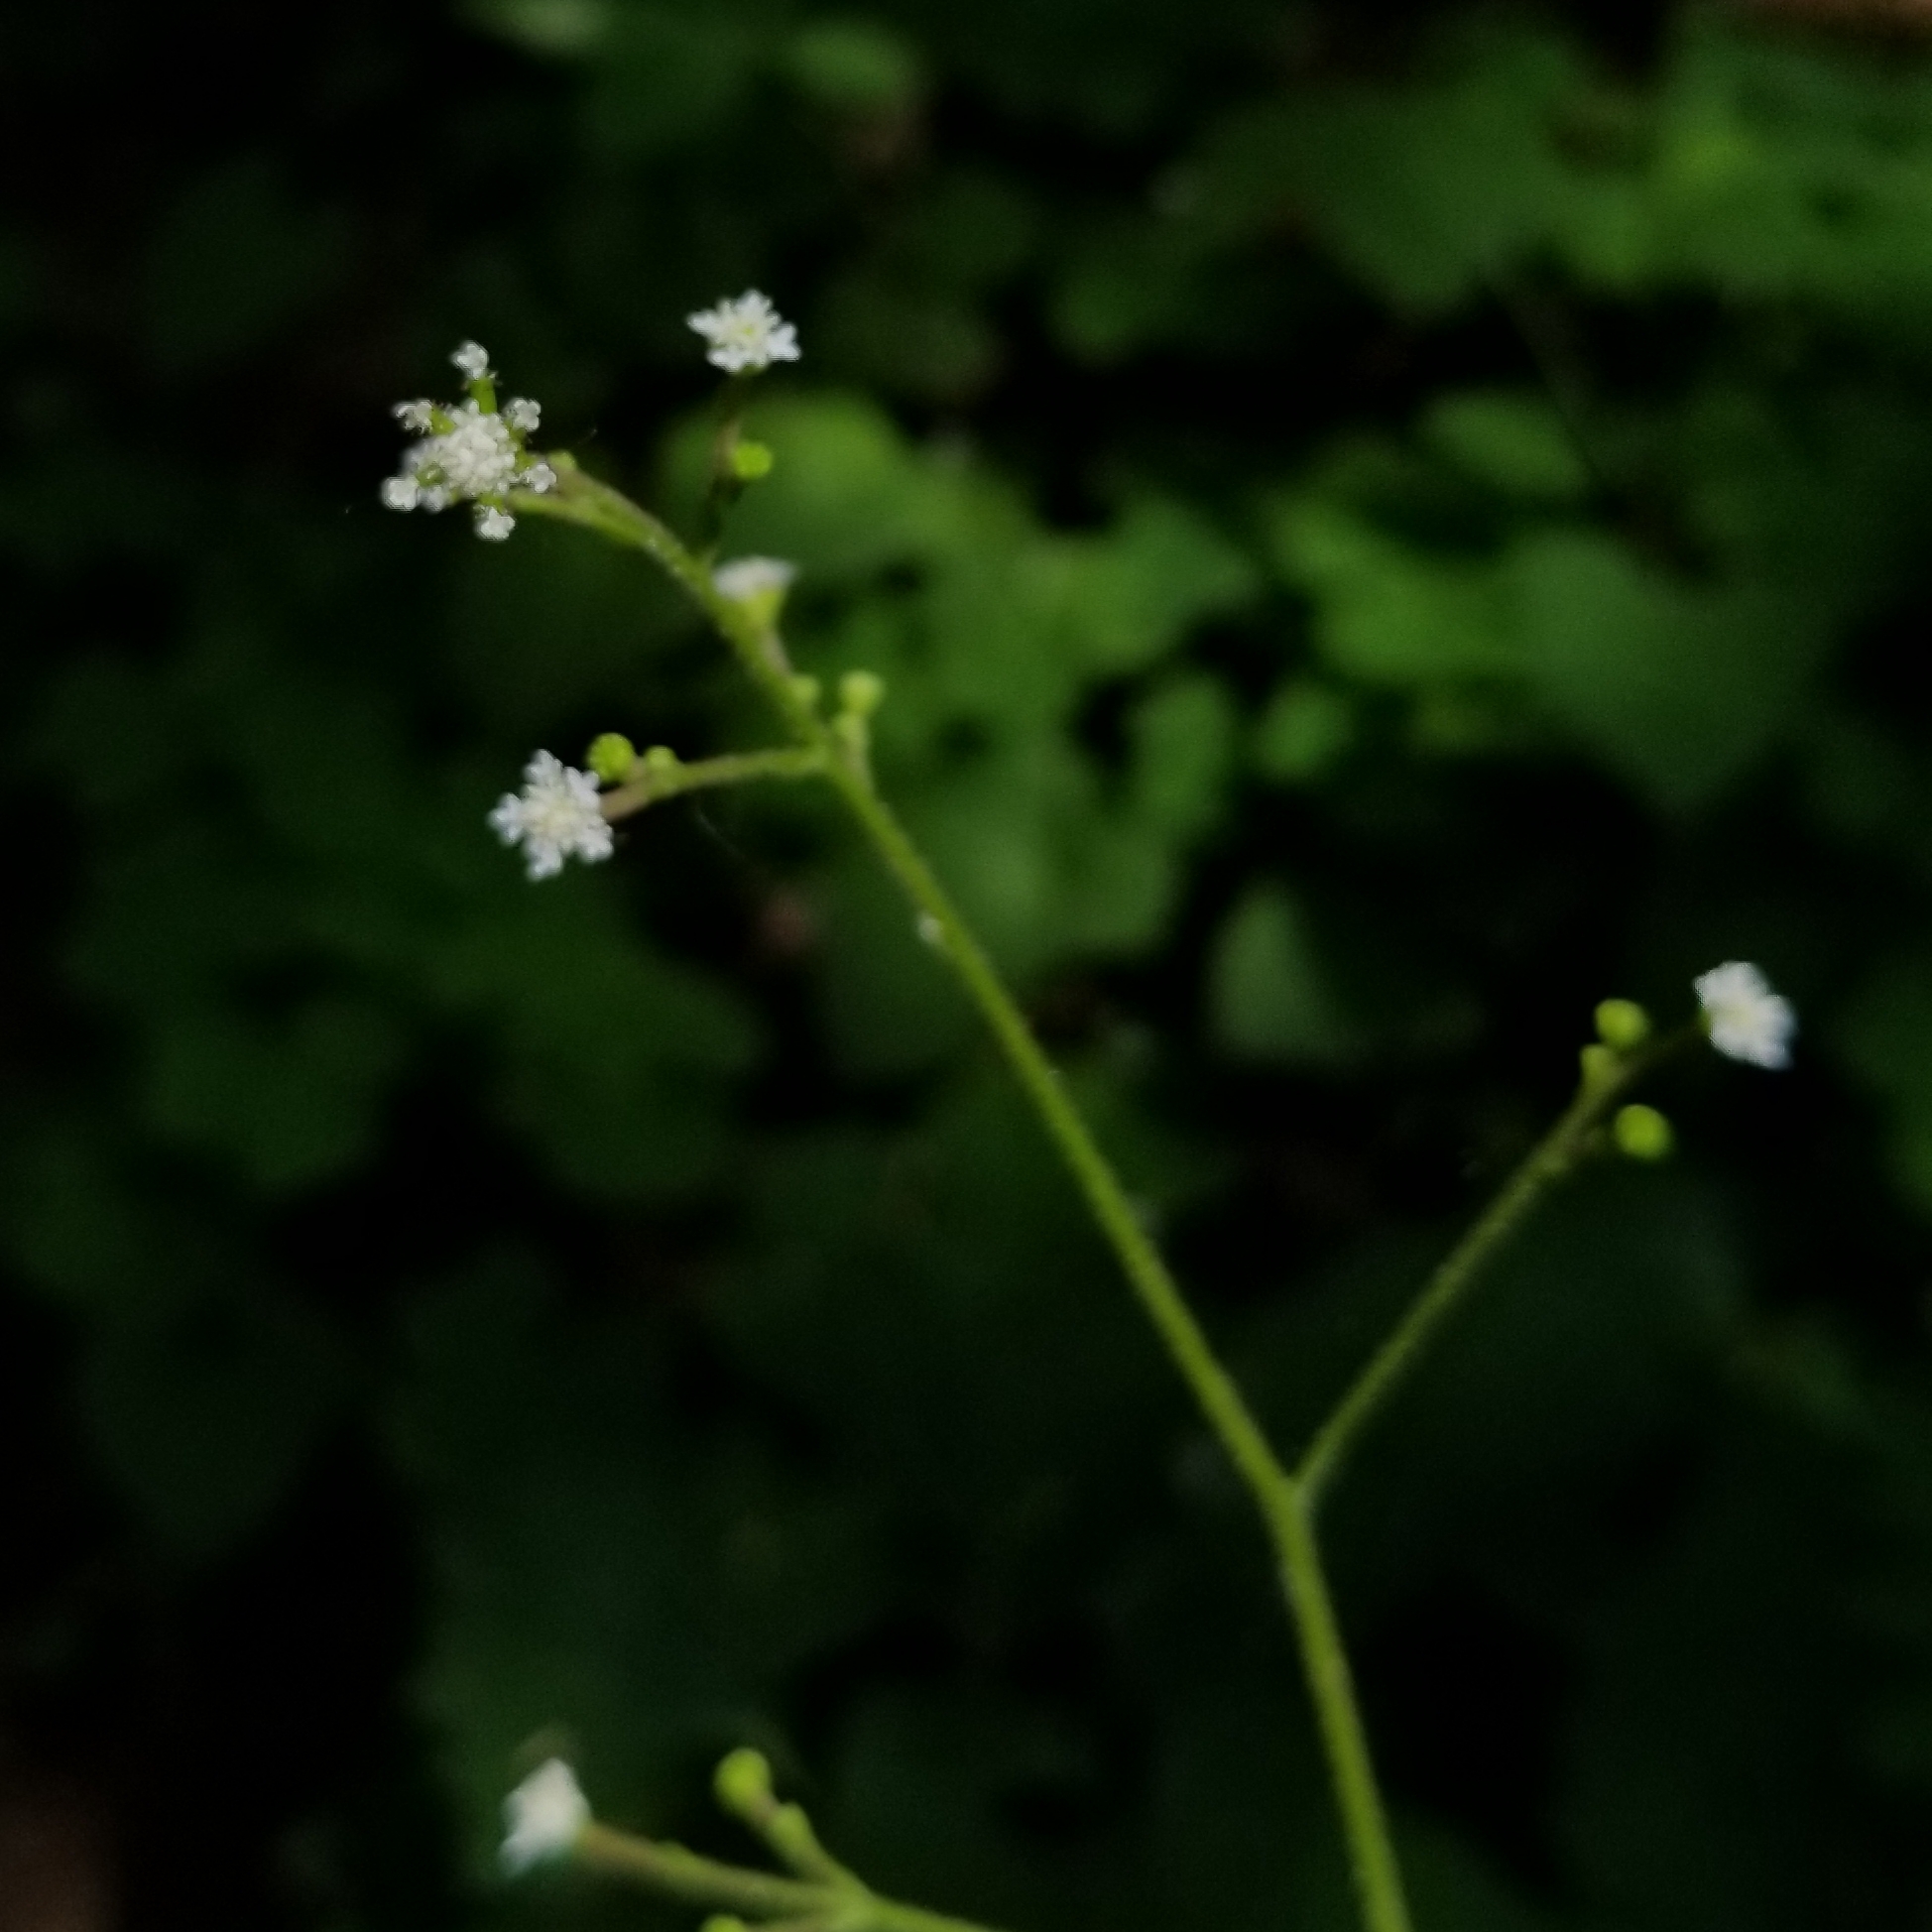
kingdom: Plantae
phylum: Tracheophyta
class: Magnoliopsida
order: Asterales
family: Asteraceae
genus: Adenocaulon
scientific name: Adenocaulon bicolor
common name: Trailplant
